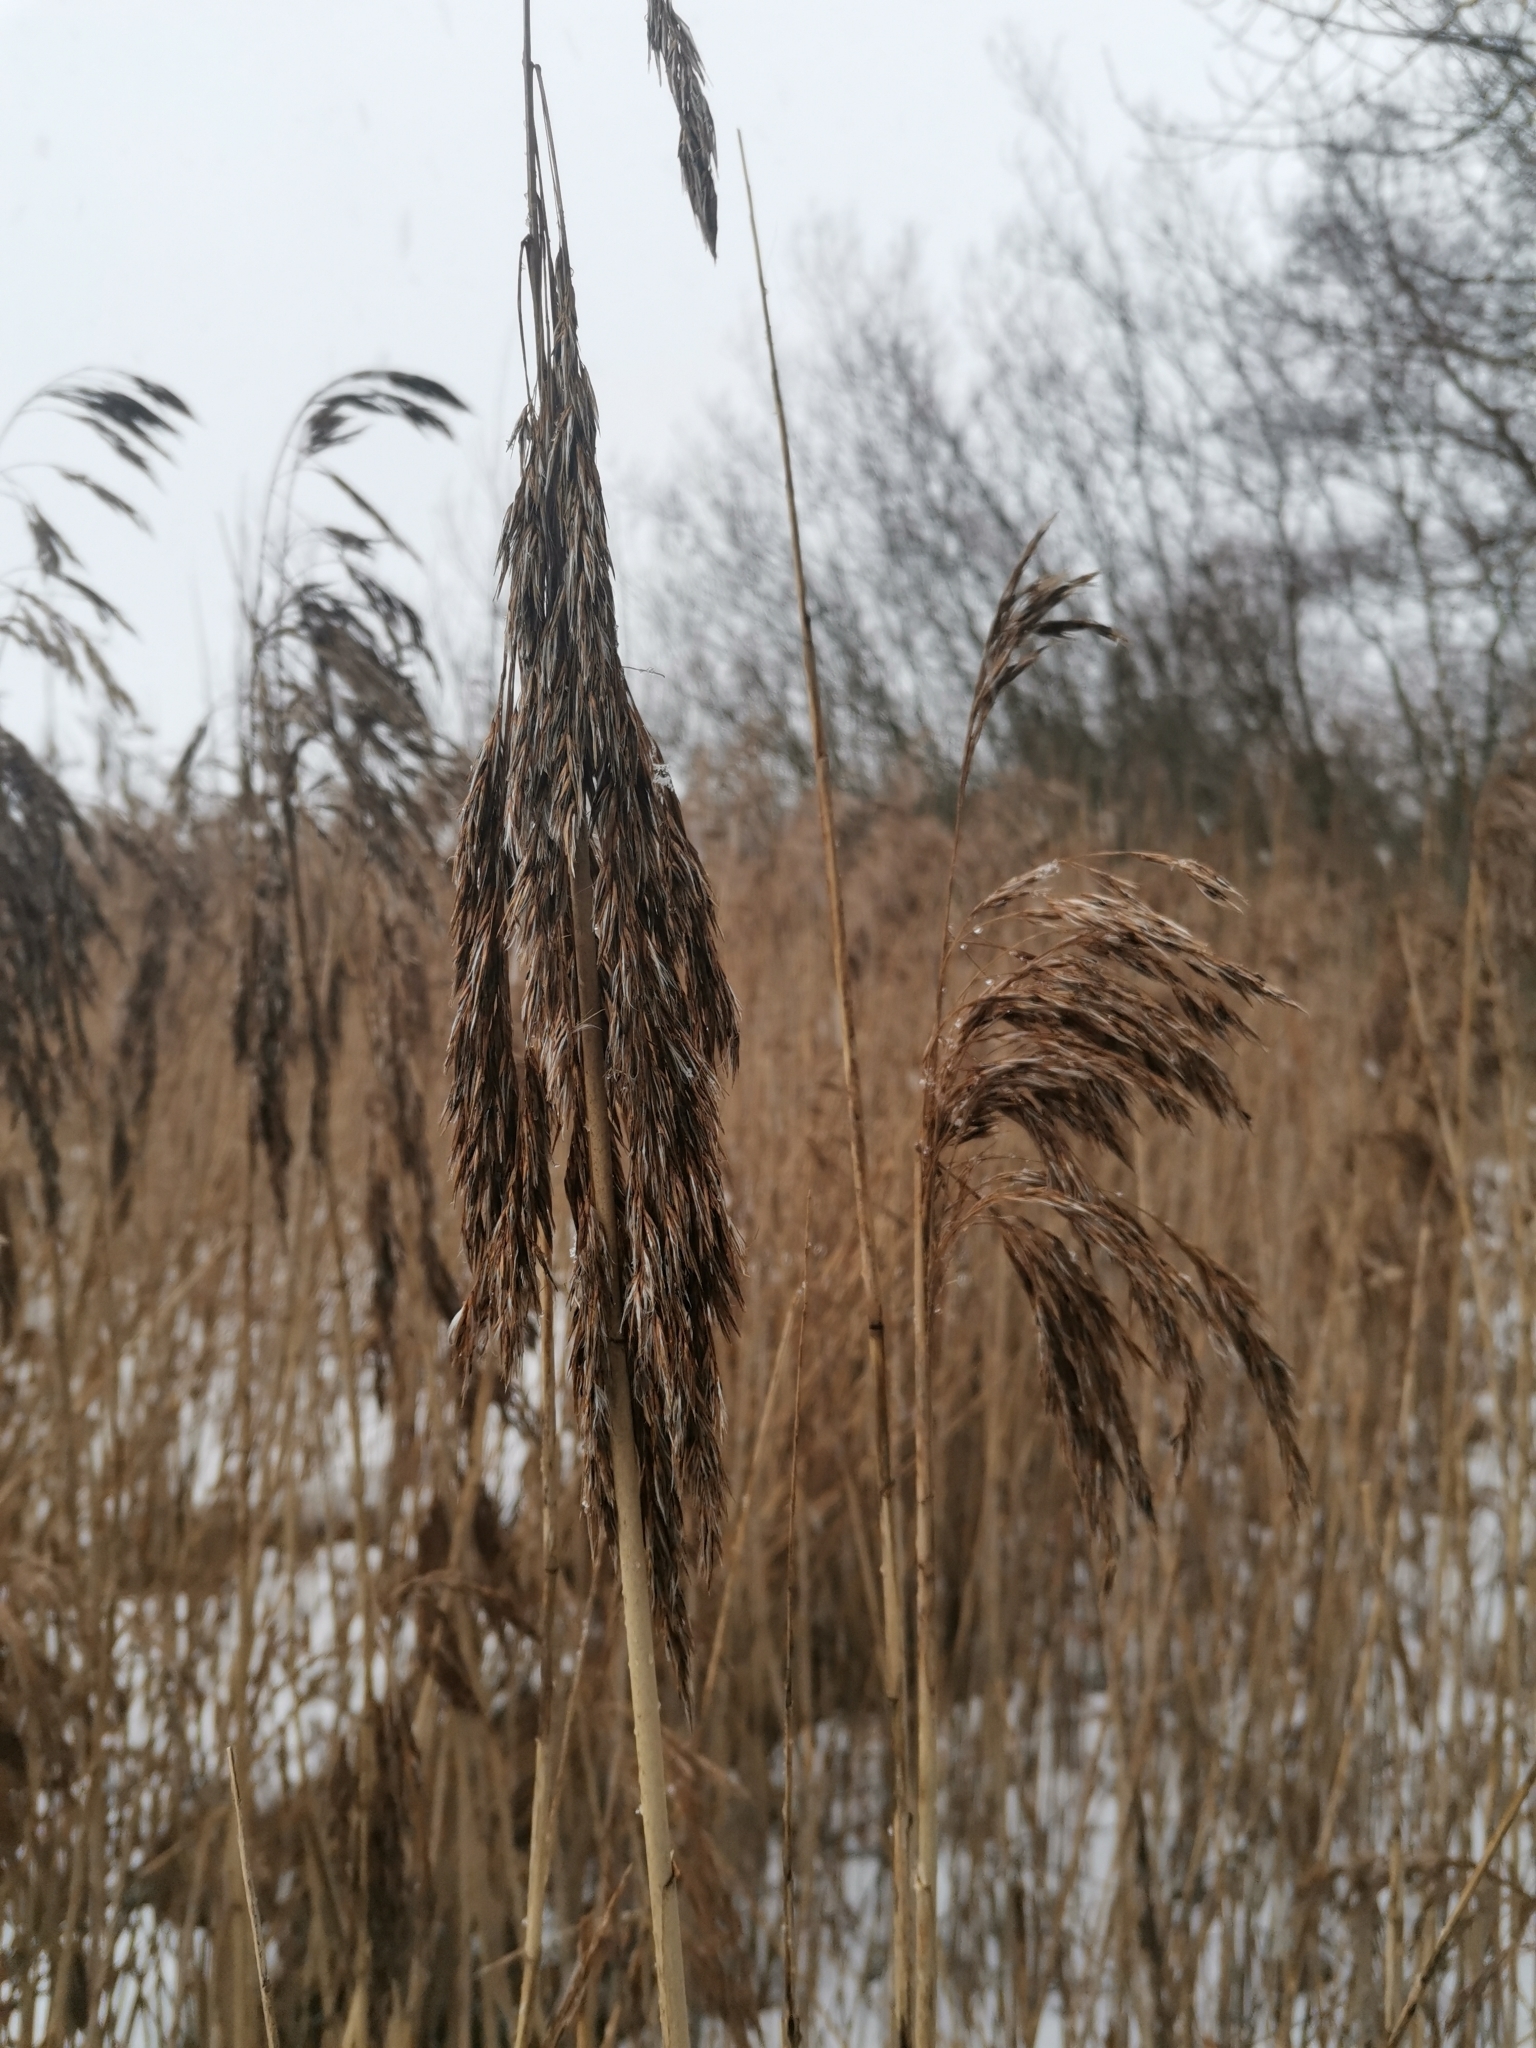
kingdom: Plantae
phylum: Tracheophyta
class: Liliopsida
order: Poales
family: Poaceae
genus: Phragmites
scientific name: Phragmites australis
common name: Common reed
